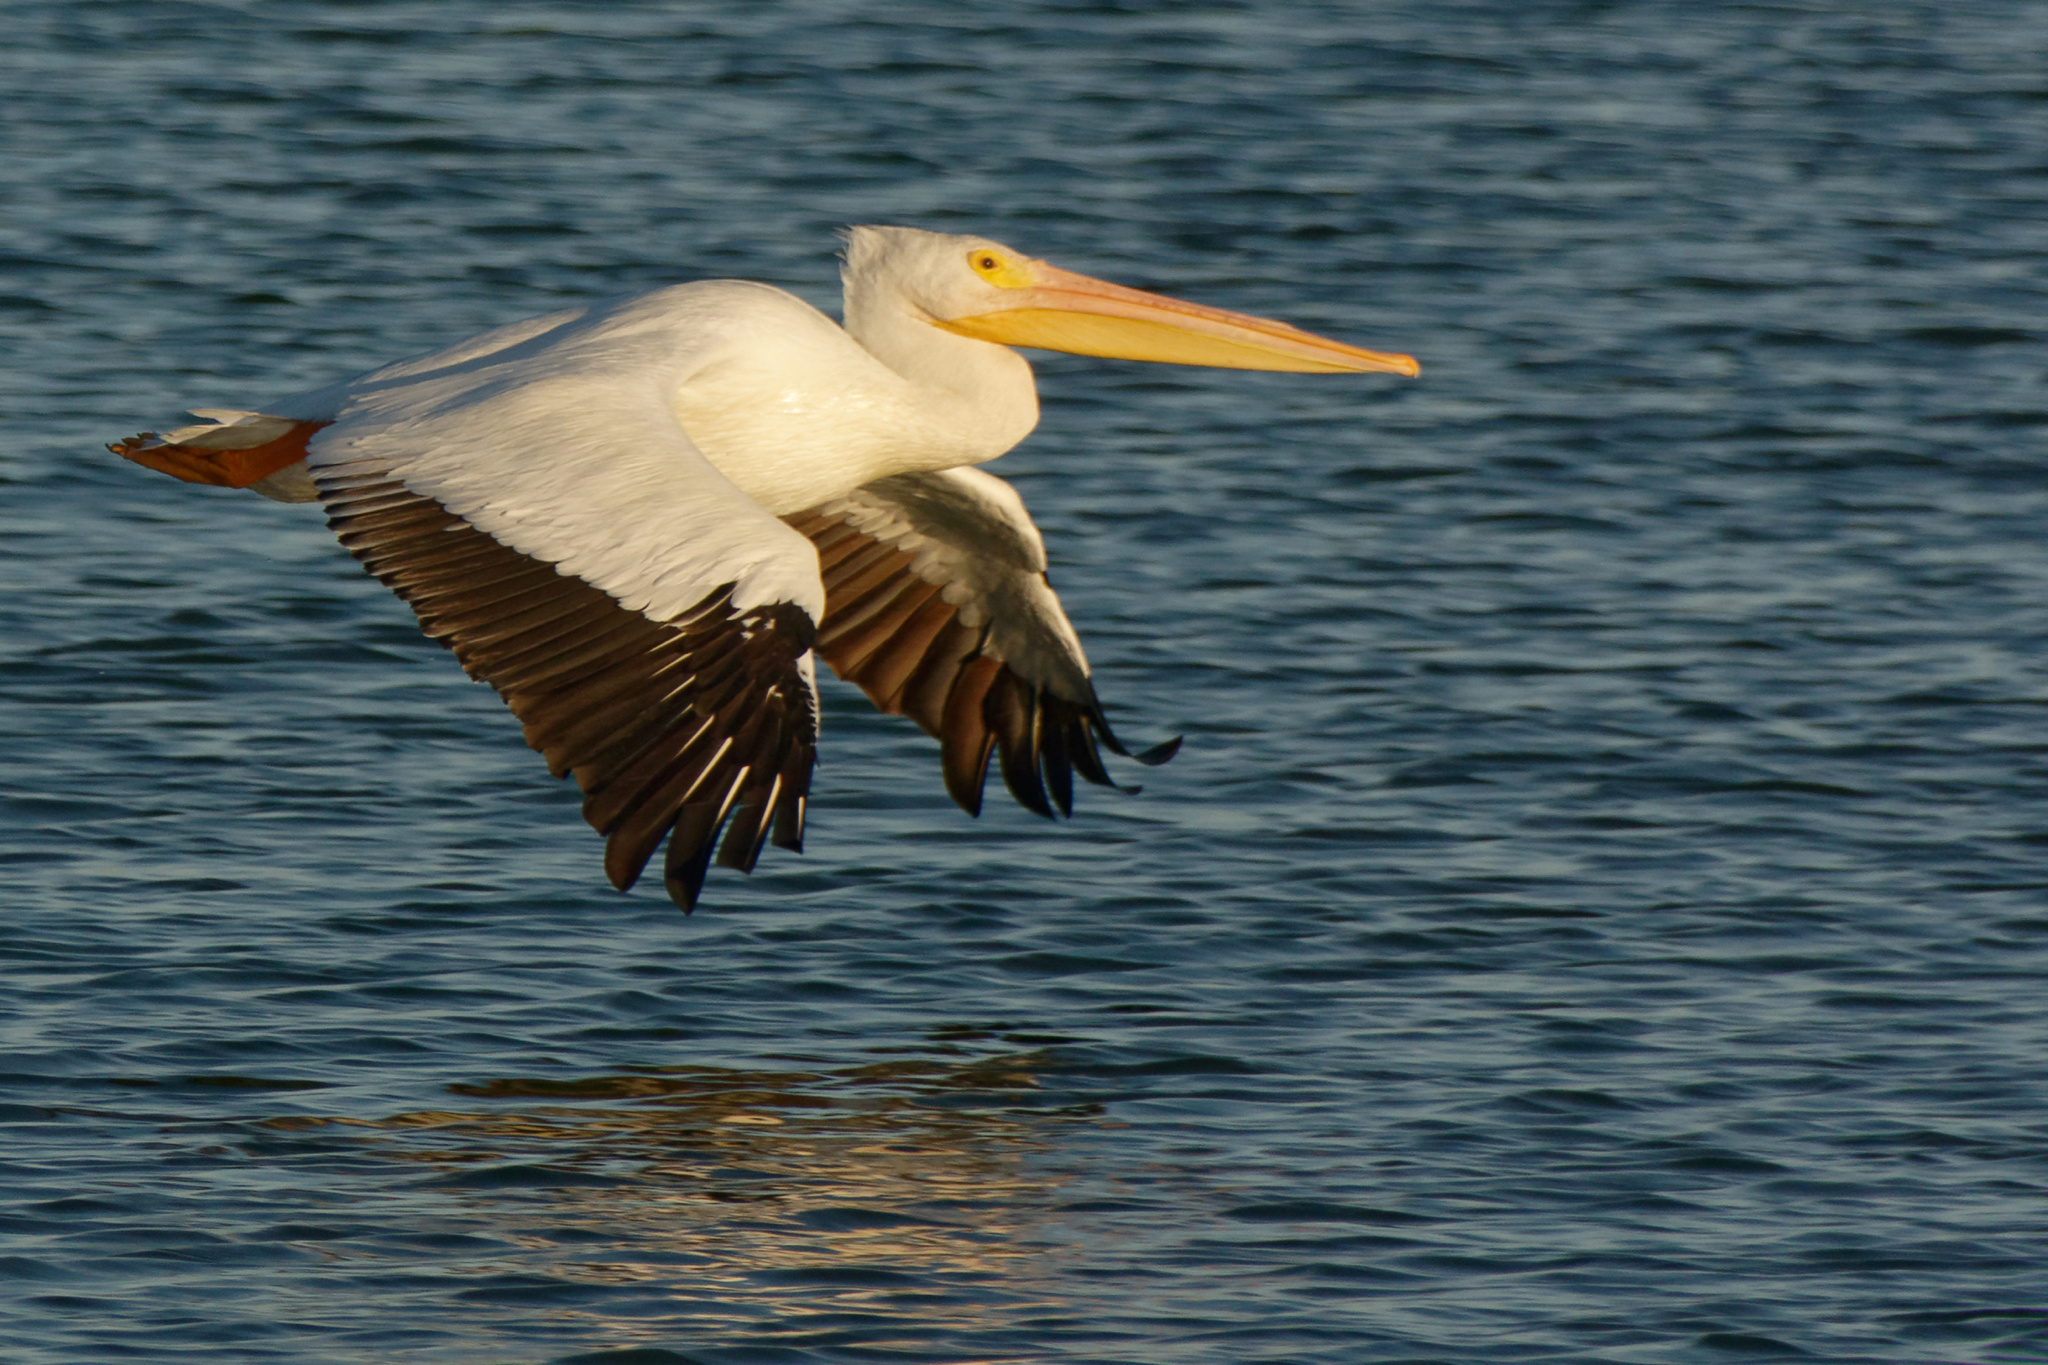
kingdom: Animalia
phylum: Chordata
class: Aves
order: Pelecaniformes
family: Pelecanidae
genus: Pelecanus
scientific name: Pelecanus erythrorhynchos
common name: American white pelican
